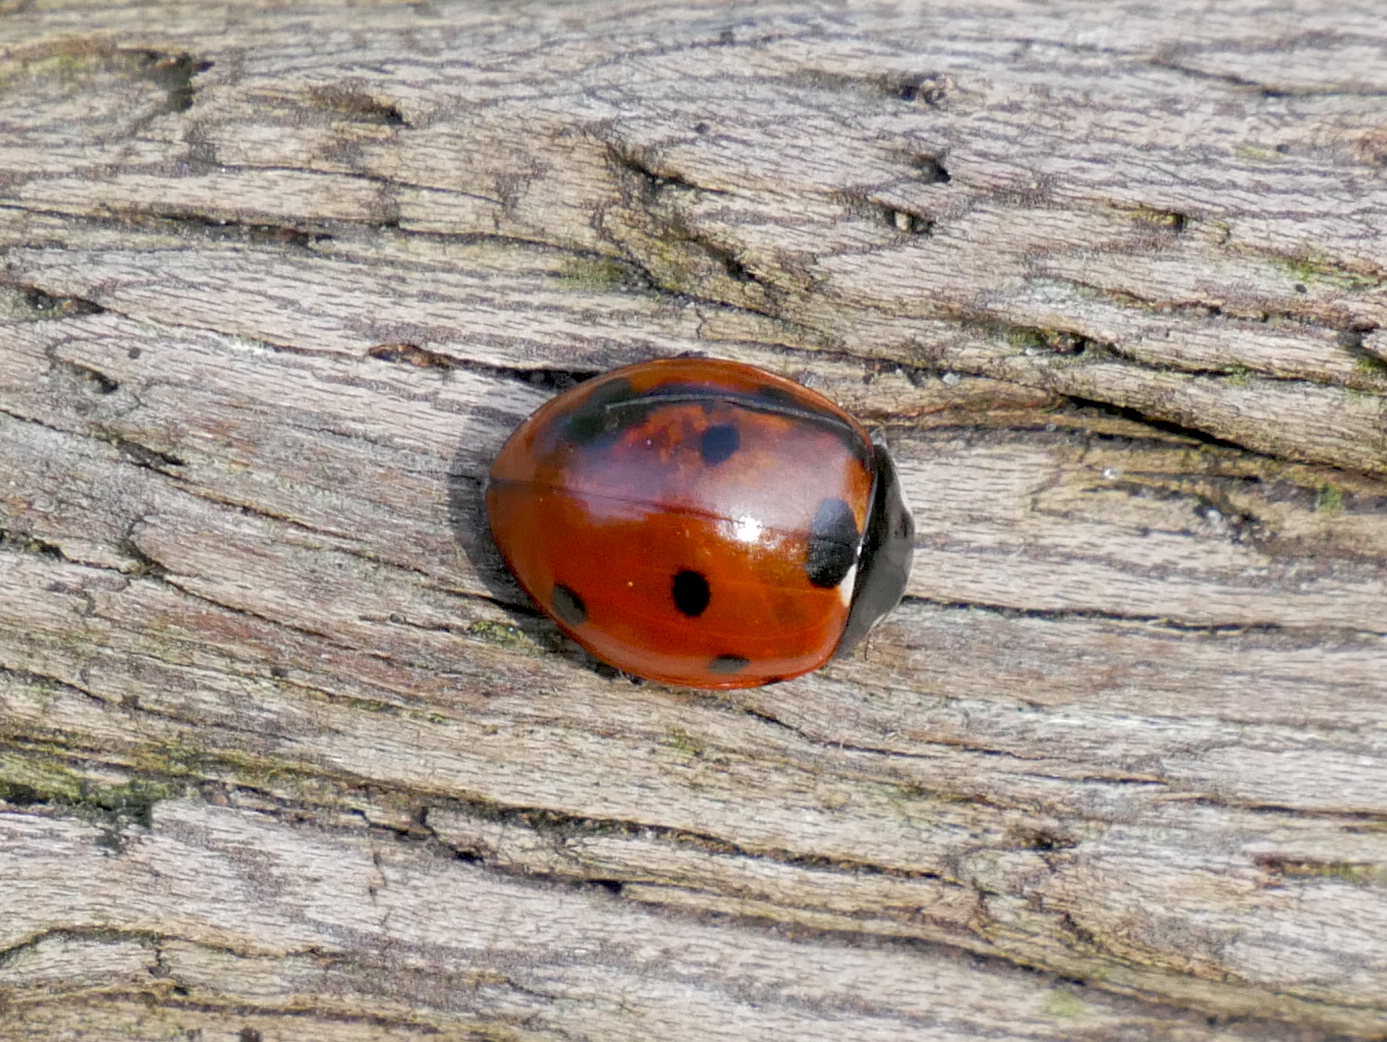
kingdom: Animalia
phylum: Arthropoda
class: Insecta
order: Coleoptera
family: Coccinellidae
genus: Coccinella
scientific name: Coccinella septempunctata
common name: Sevenspotted lady beetle
